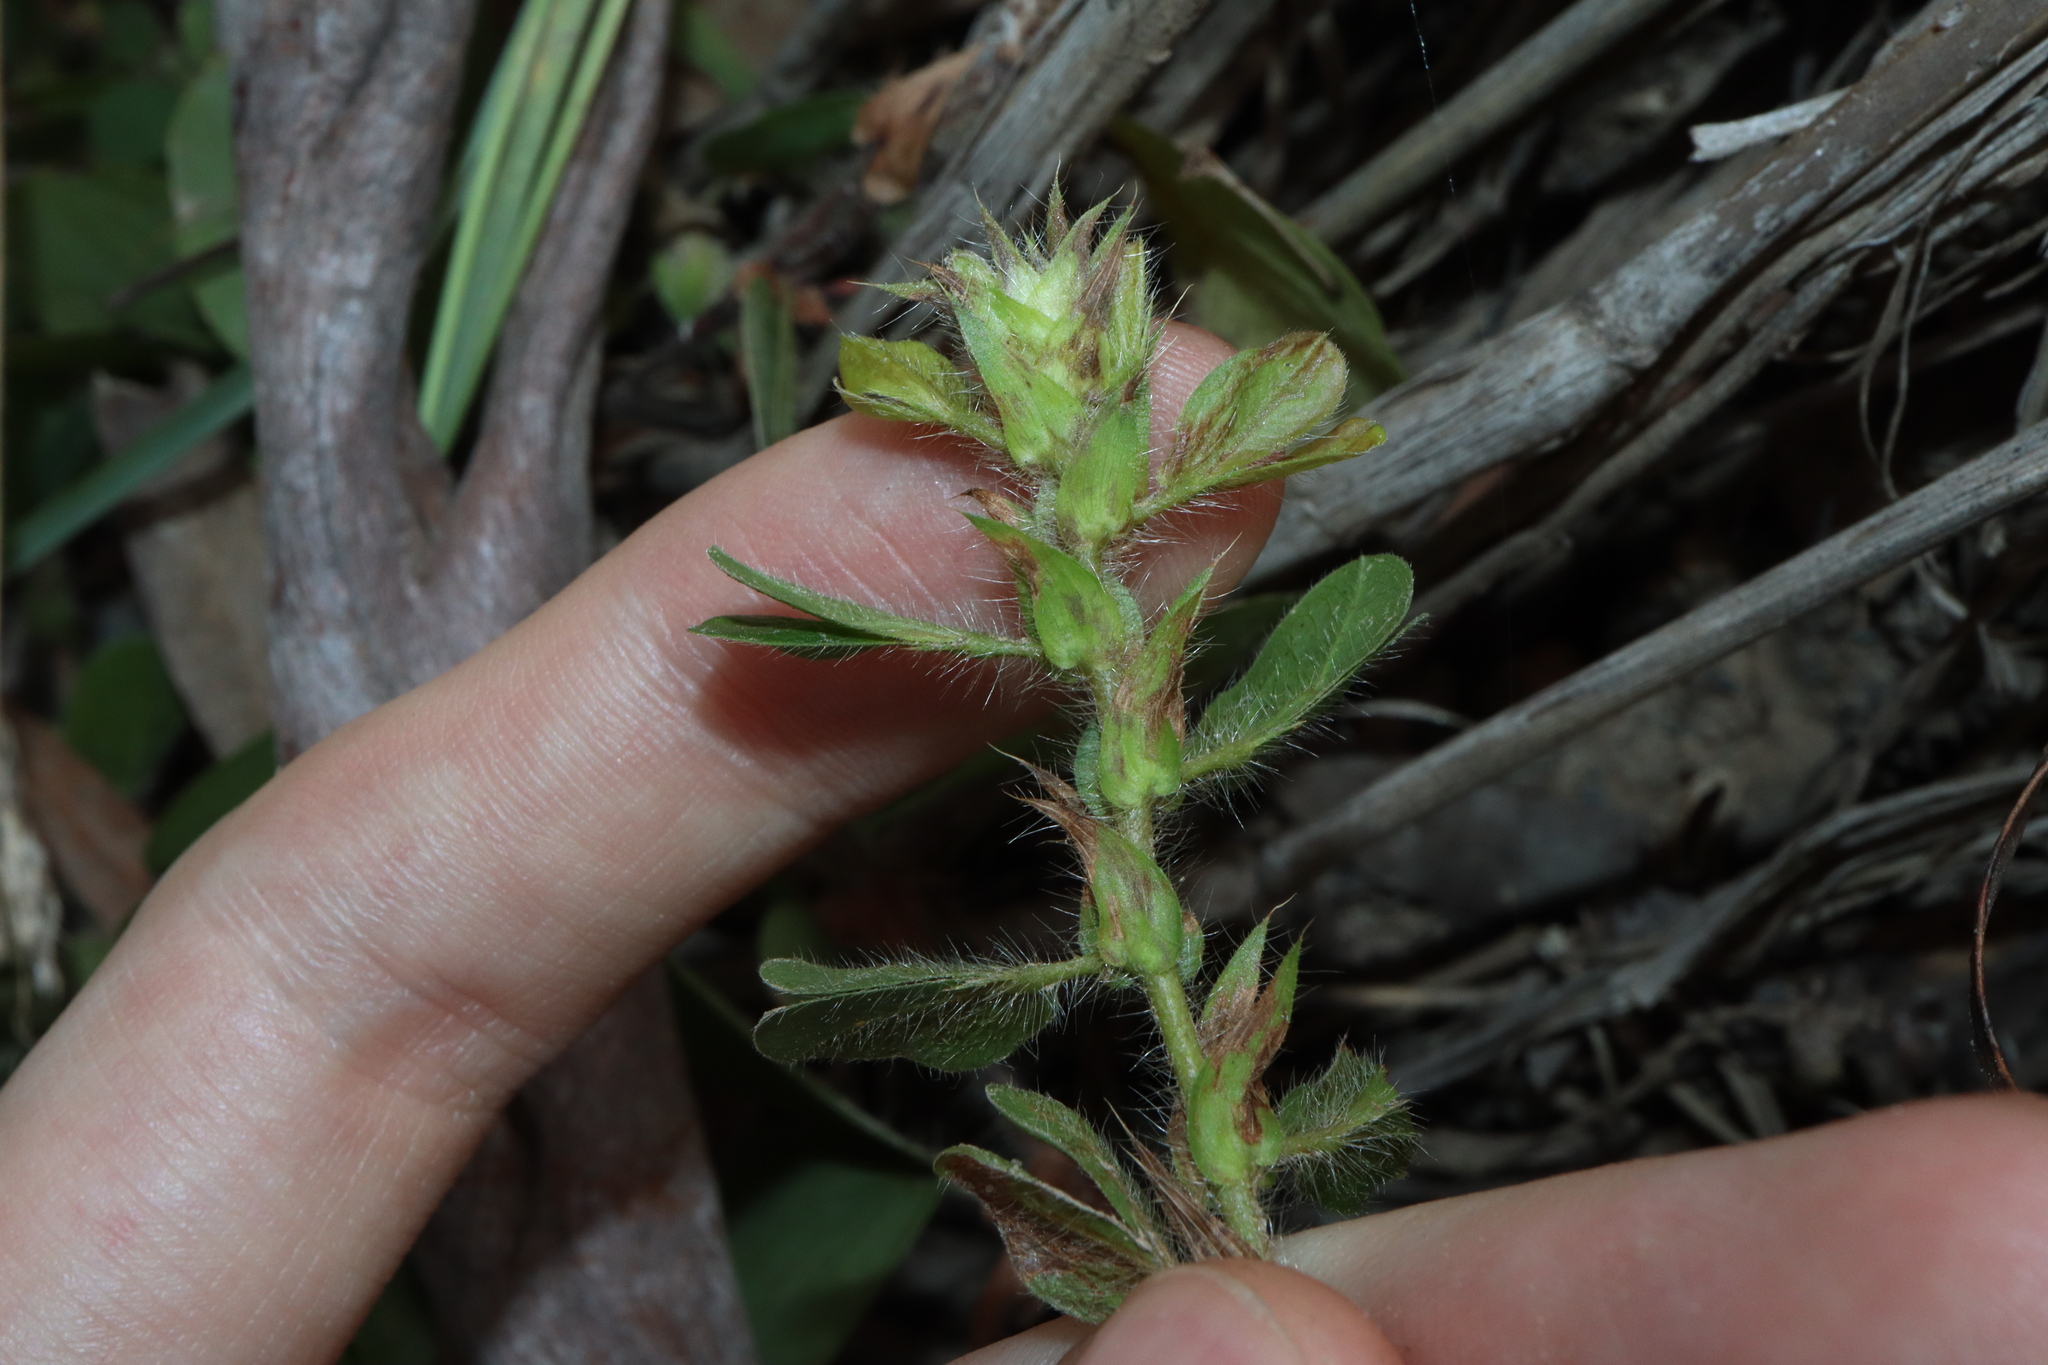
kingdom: Plantae
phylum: Tracheophyta
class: Magnoliopsida
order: Fabales
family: Fabaceae
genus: Chamaecrista
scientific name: Chamaecrista rotundifolia
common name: Round-leaf cassia
